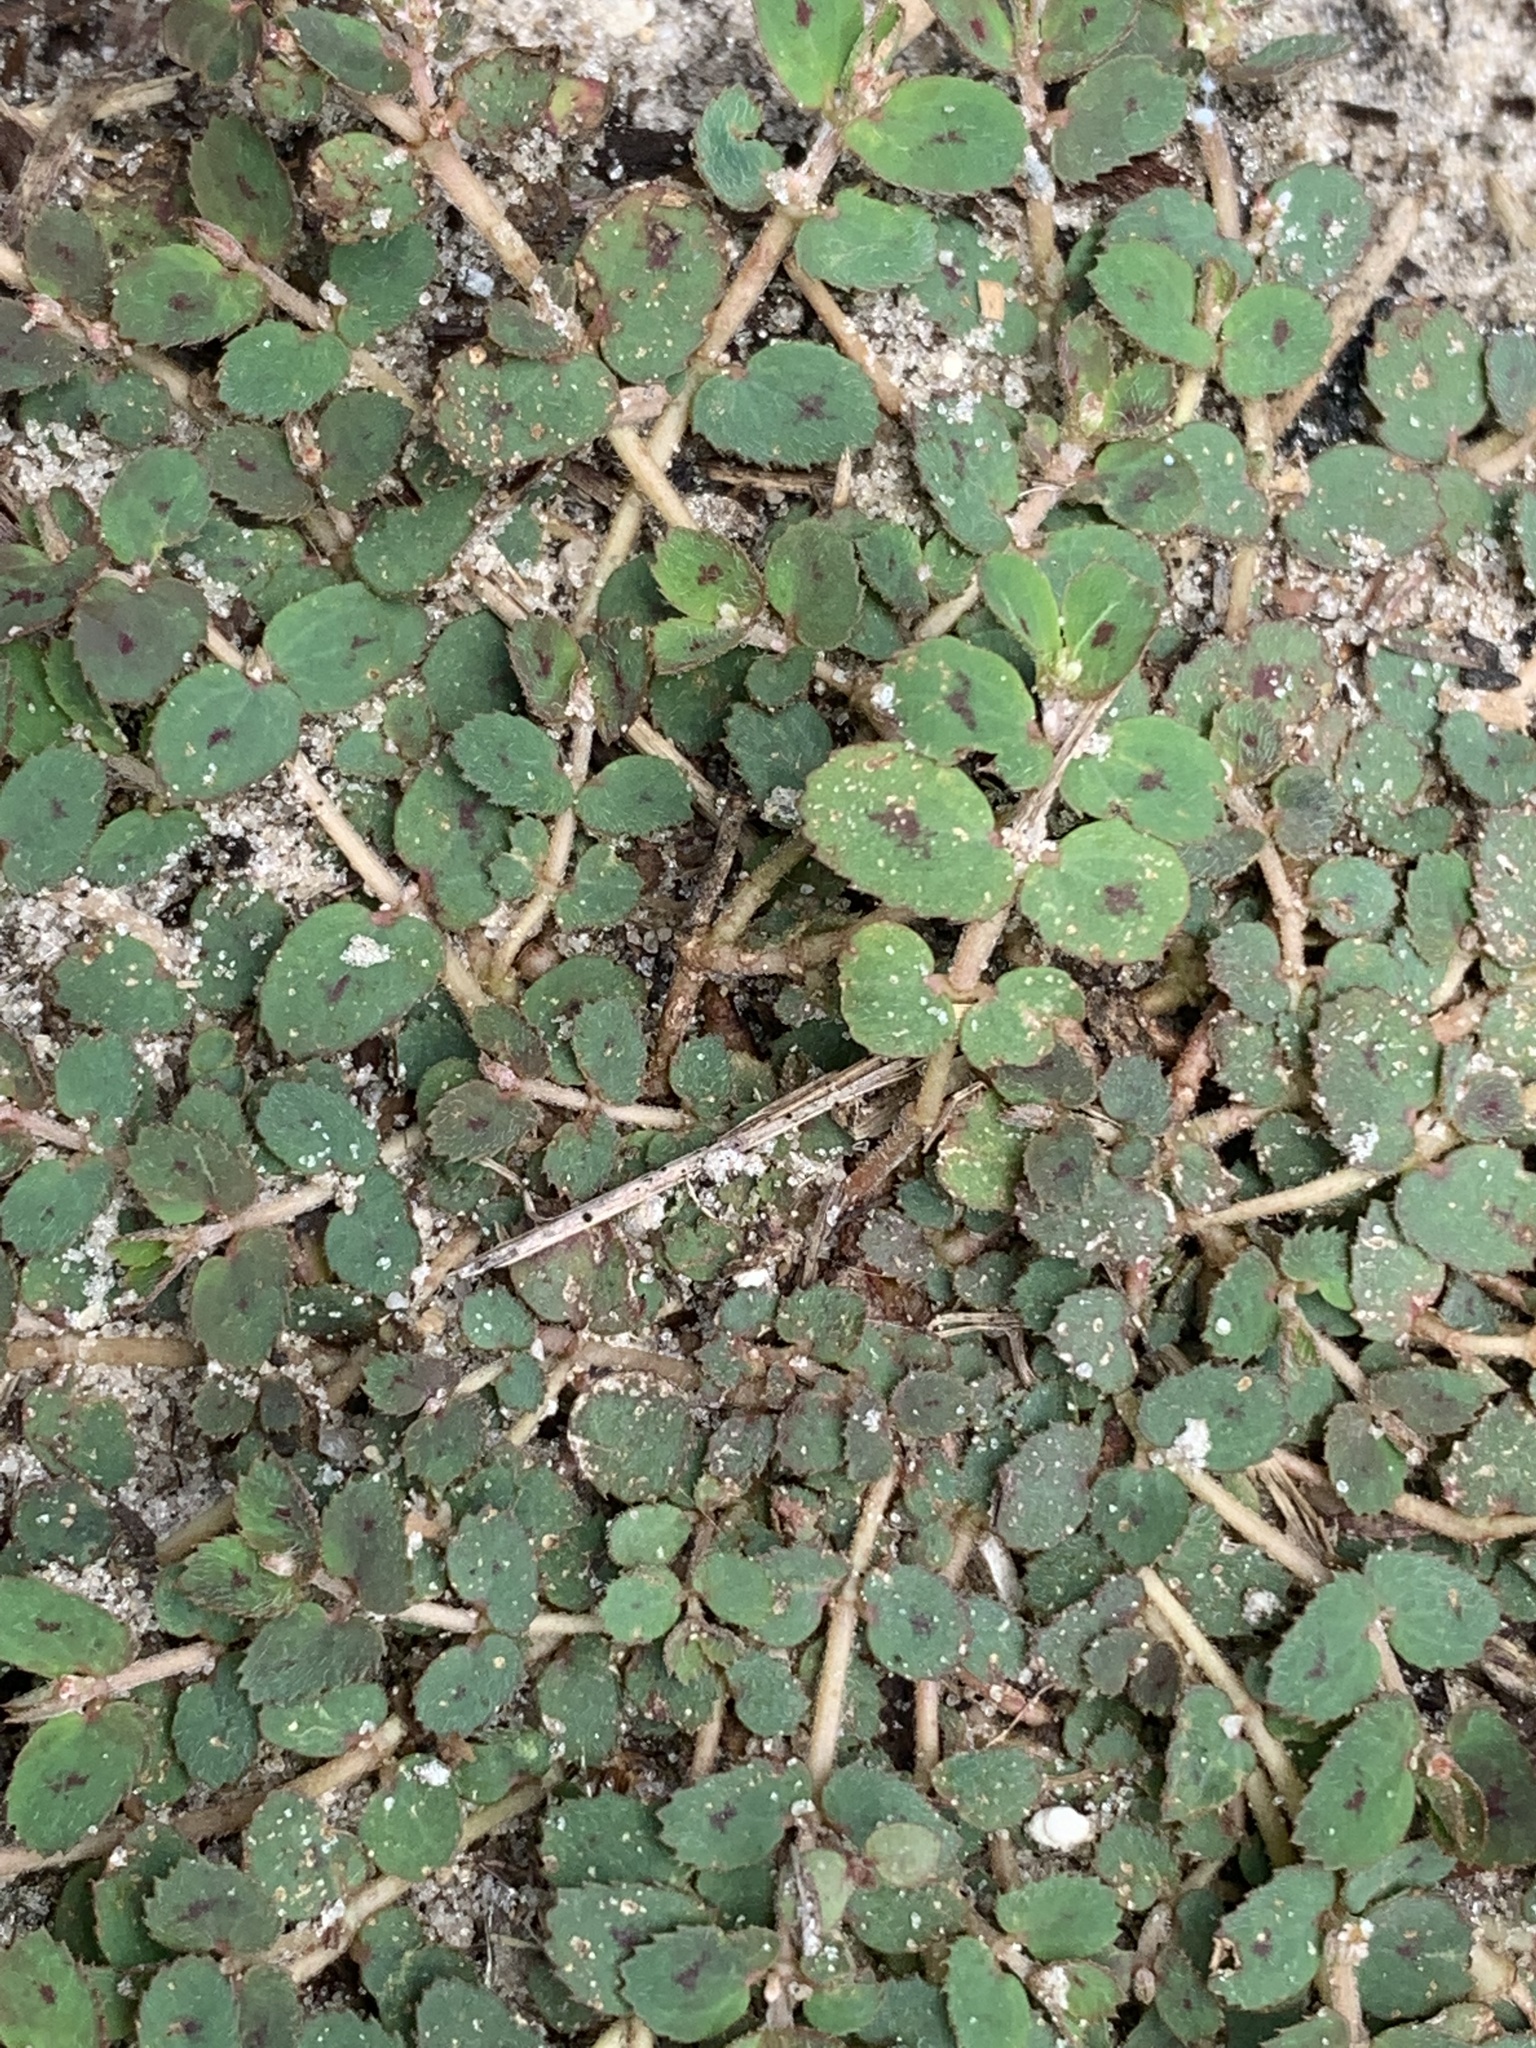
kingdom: Plantae
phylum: Tracheophyta
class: Magnoliopsida
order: Malpighiales
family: Euphorbiaceae
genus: Euphorbia
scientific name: Euphorbia thymifolia
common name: Gulf sandmat
